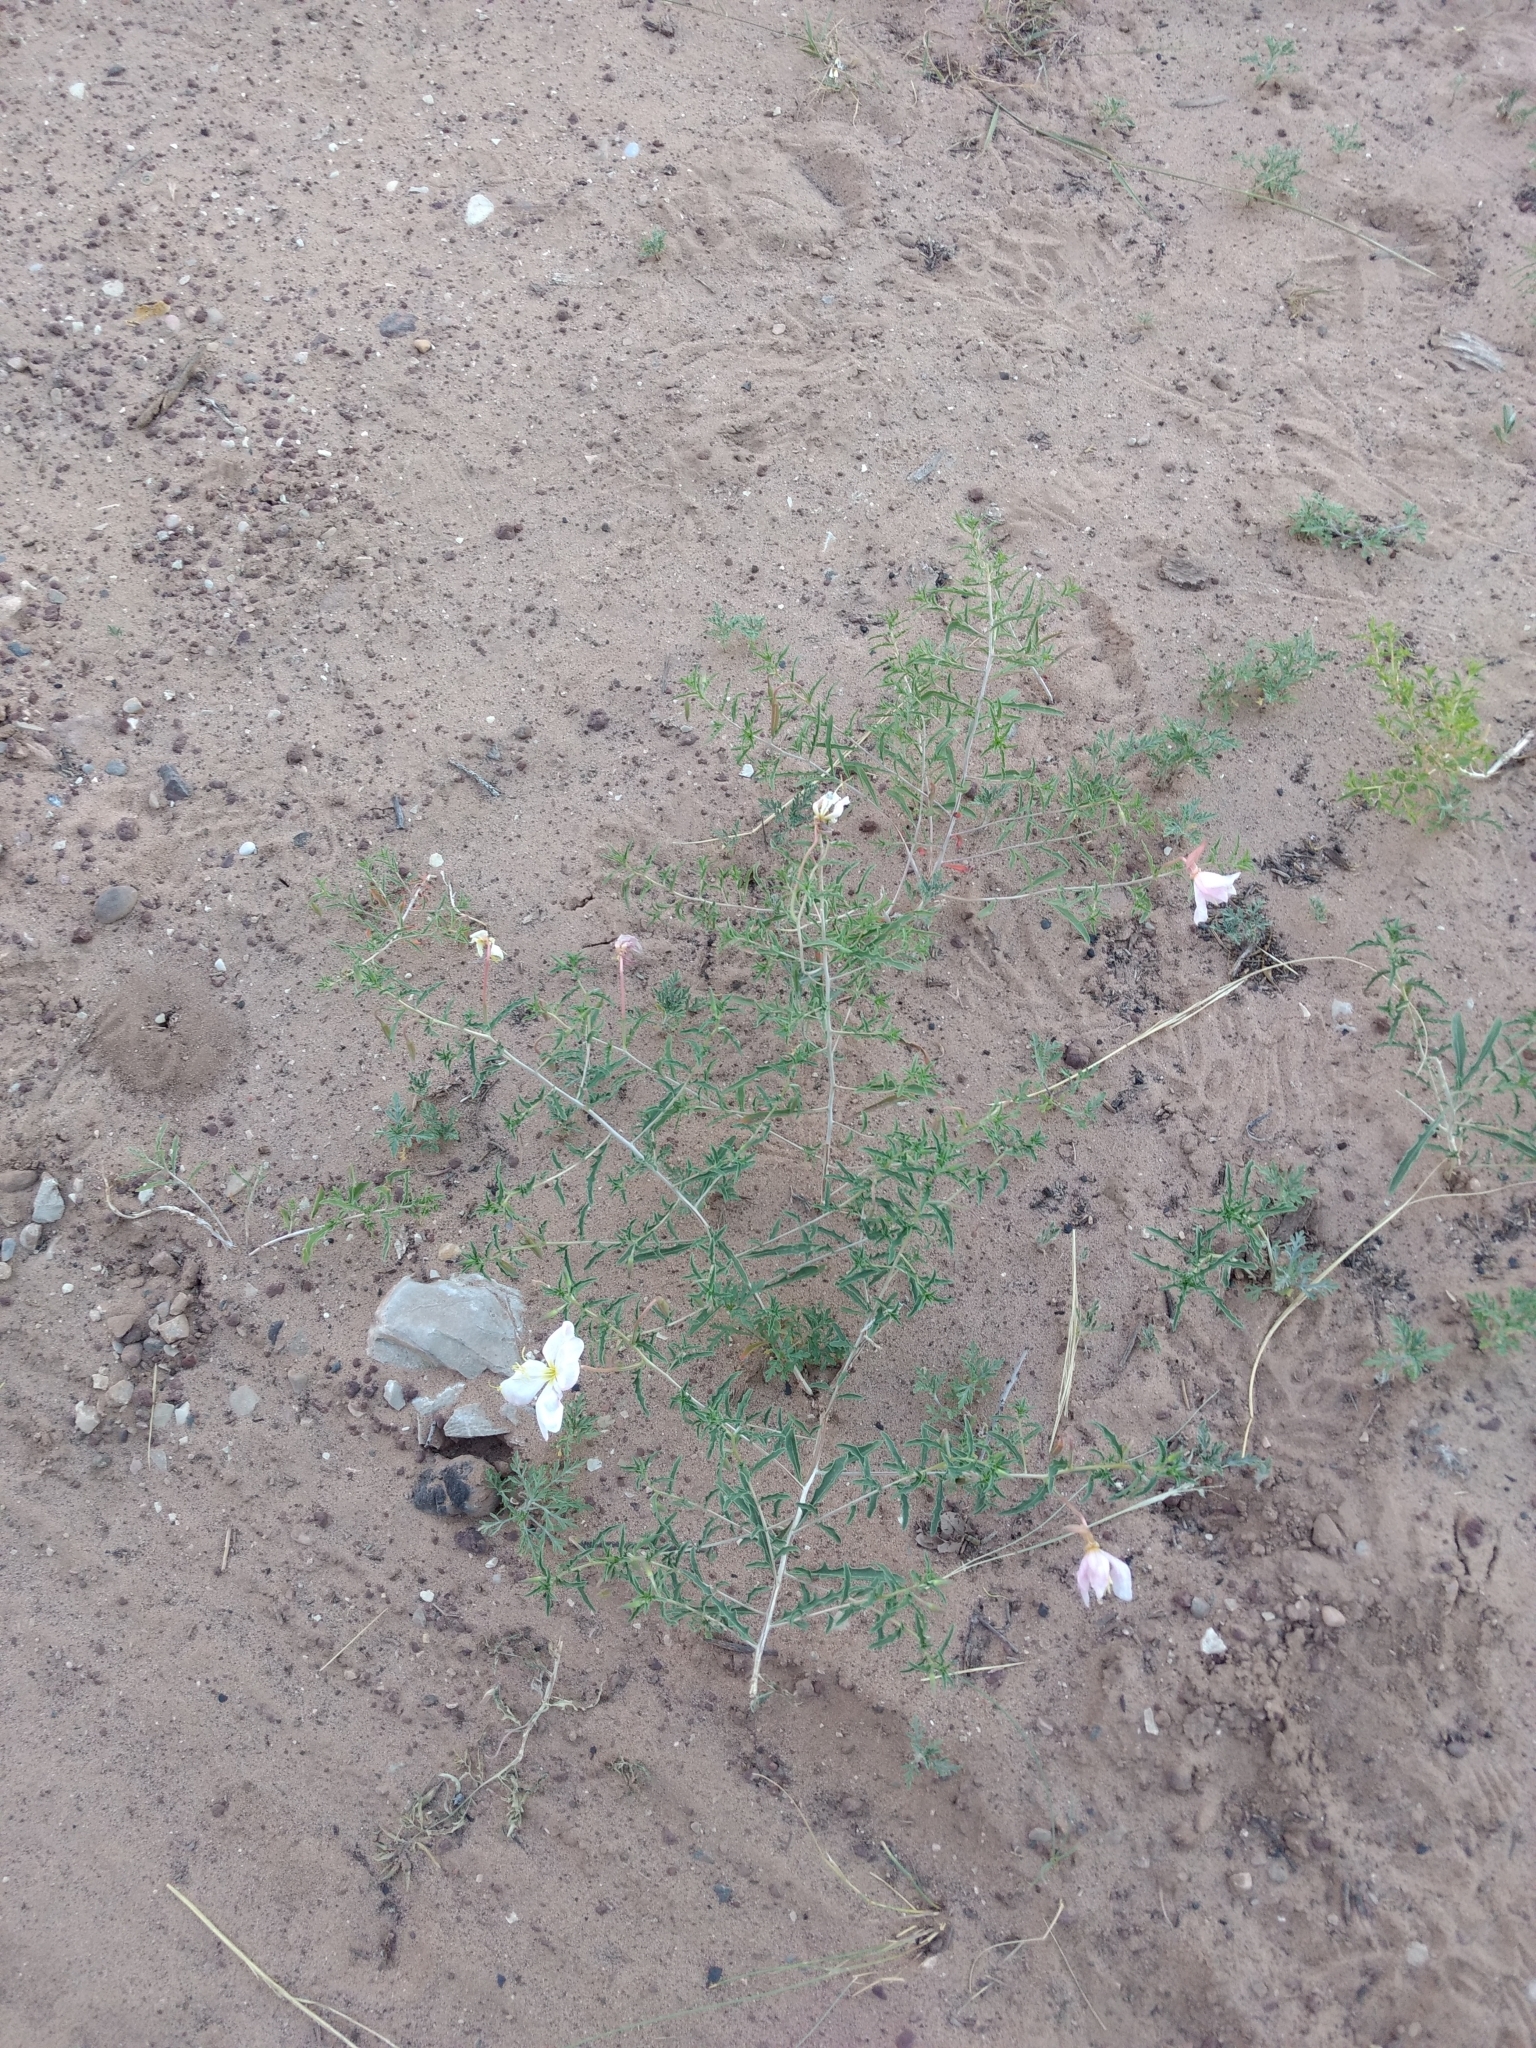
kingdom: Plantae
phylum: Tracheophyta
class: Magnoliopsida
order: Myrtales
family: Onagraceae
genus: Oenothera
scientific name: Oenothera pallida
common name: Pale evening-primrose
